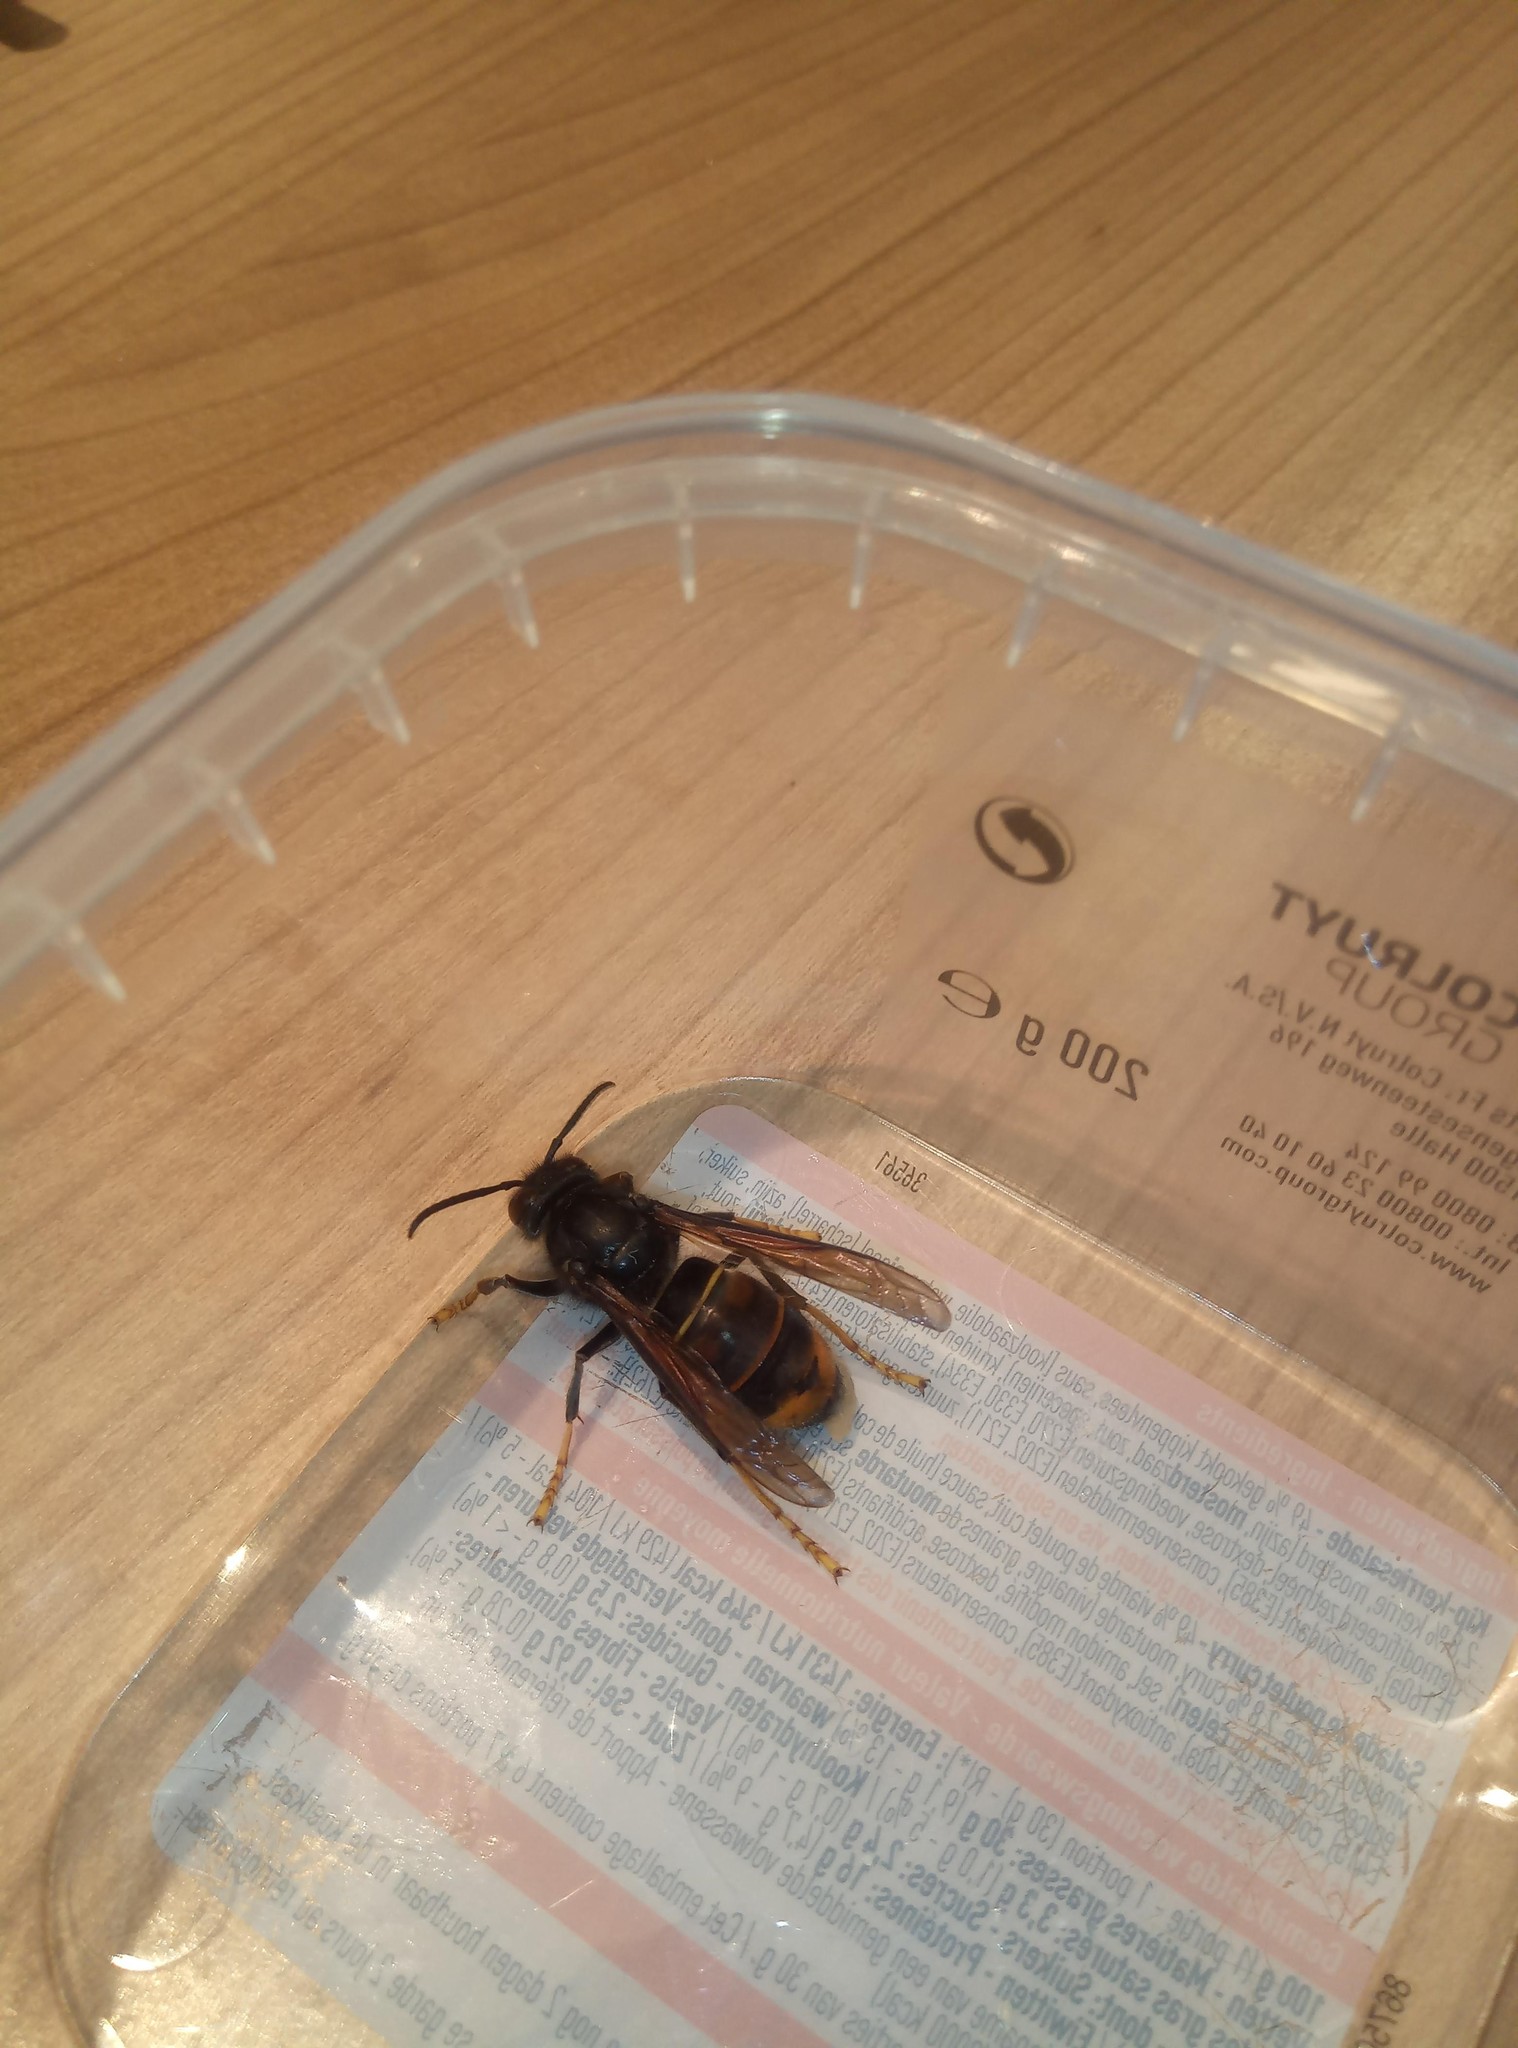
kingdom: Animalia
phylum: Arthropoda
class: Insecta
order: Hymenoptera
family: Vespidae
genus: Vespa
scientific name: Vespa velutina
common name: Asian hornet
